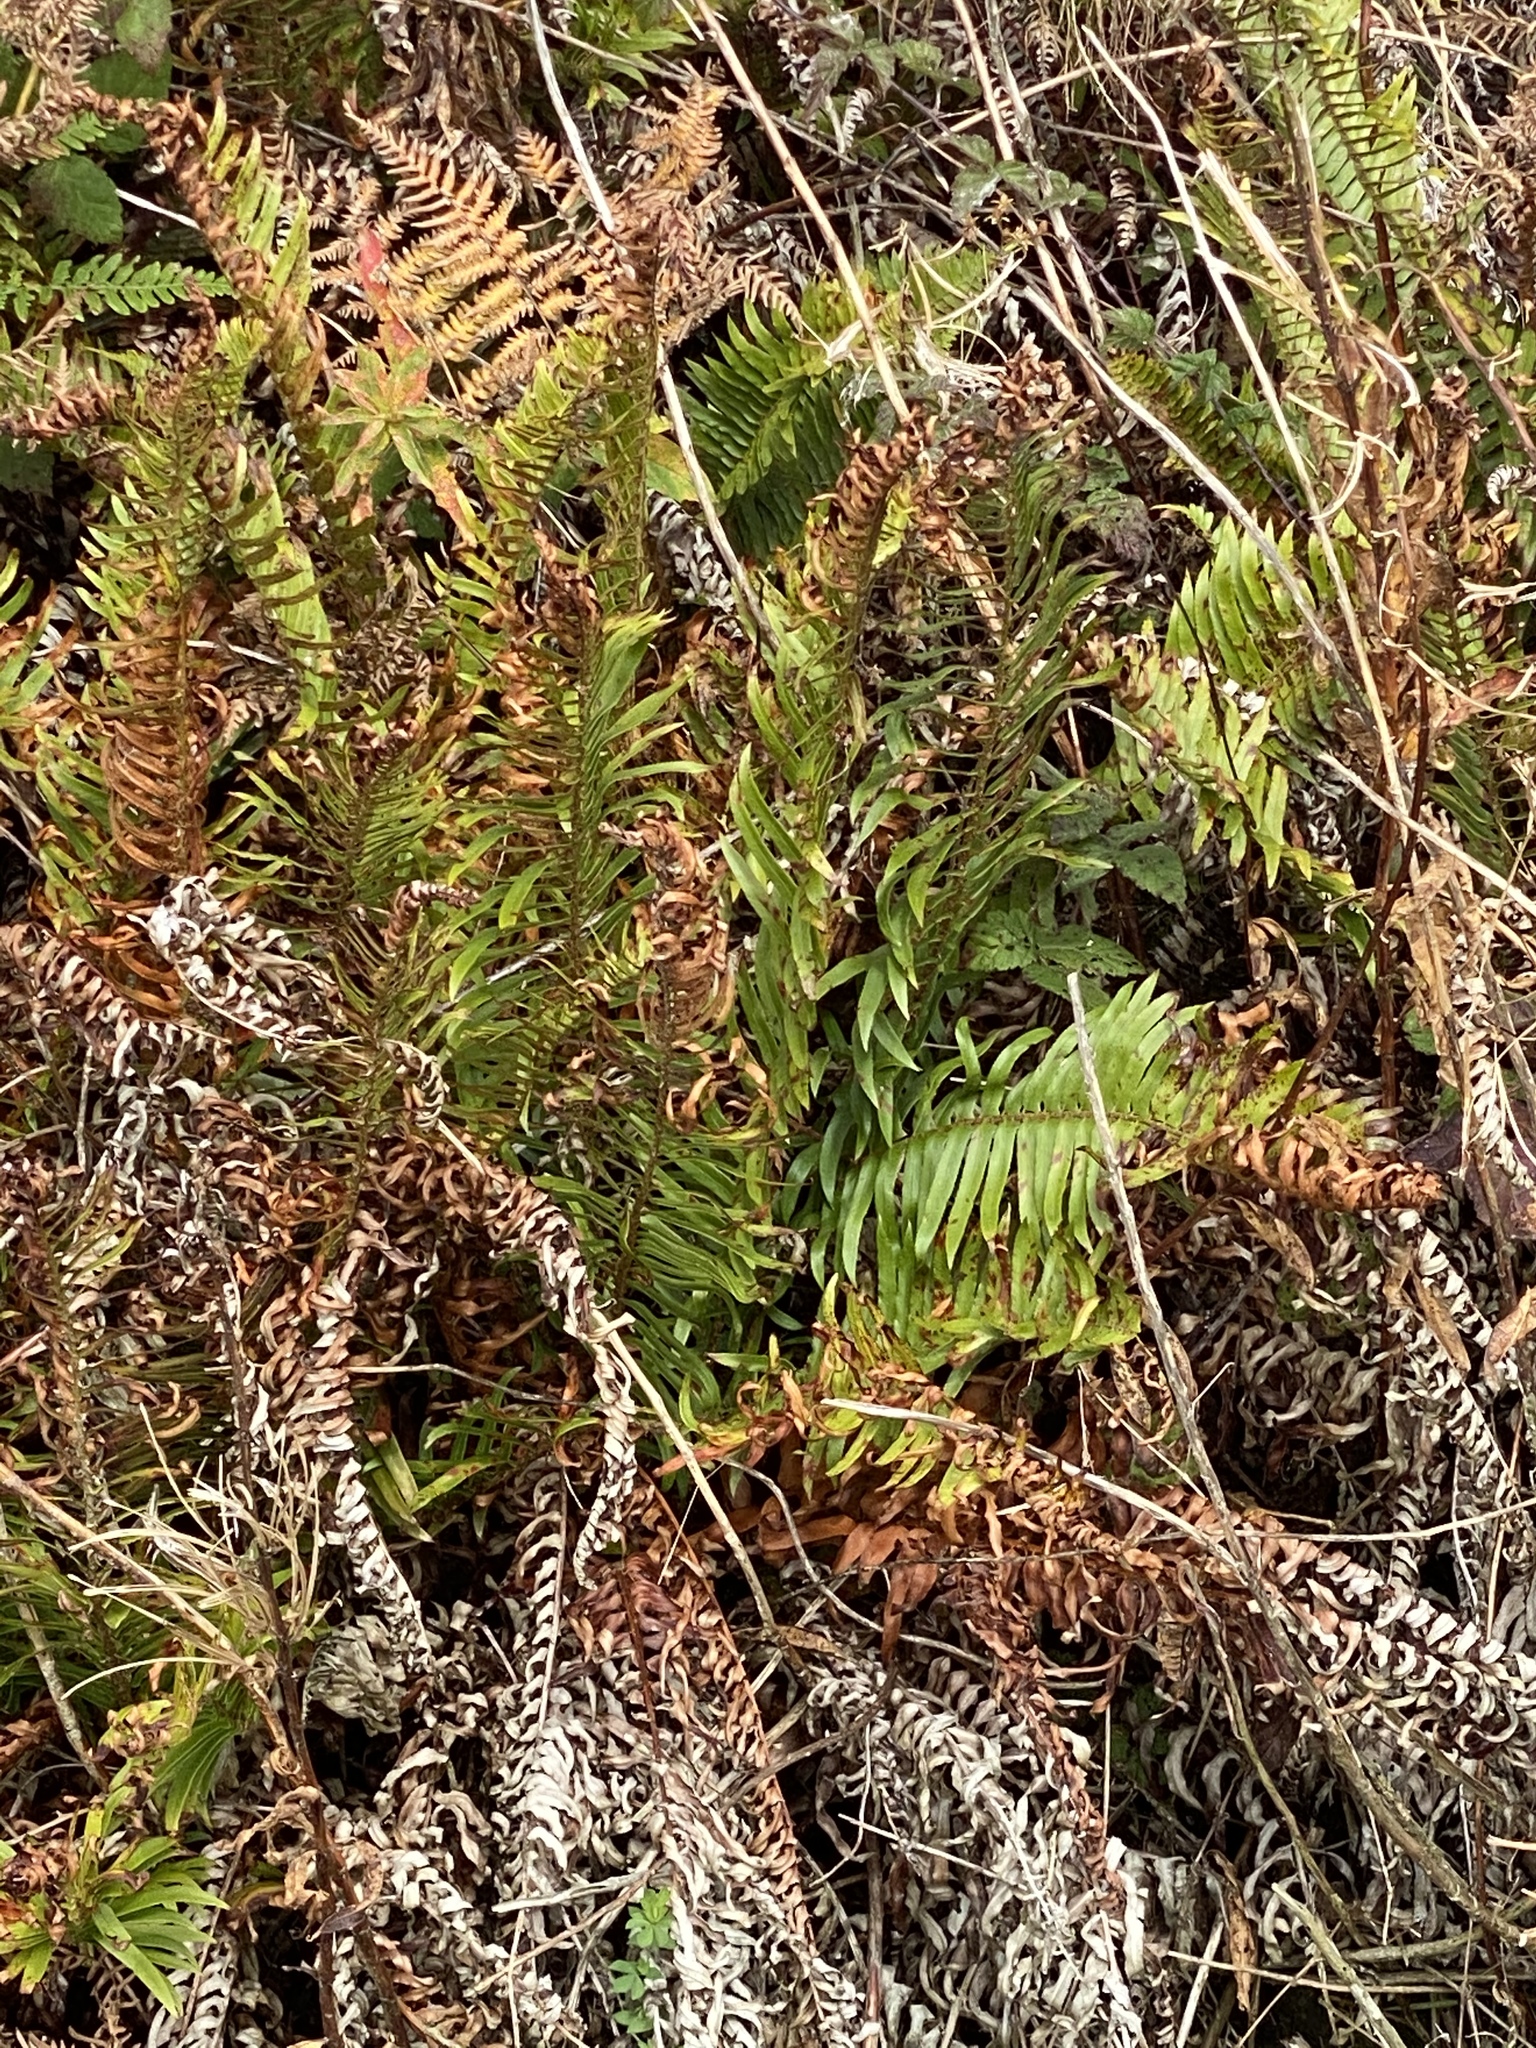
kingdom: Plantae
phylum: Tracheophyta
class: Polypodiopsida
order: Polypodiales
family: Dryopteridaceae
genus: Polystichum
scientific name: Polystichum munitum
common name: Western sword-fern
